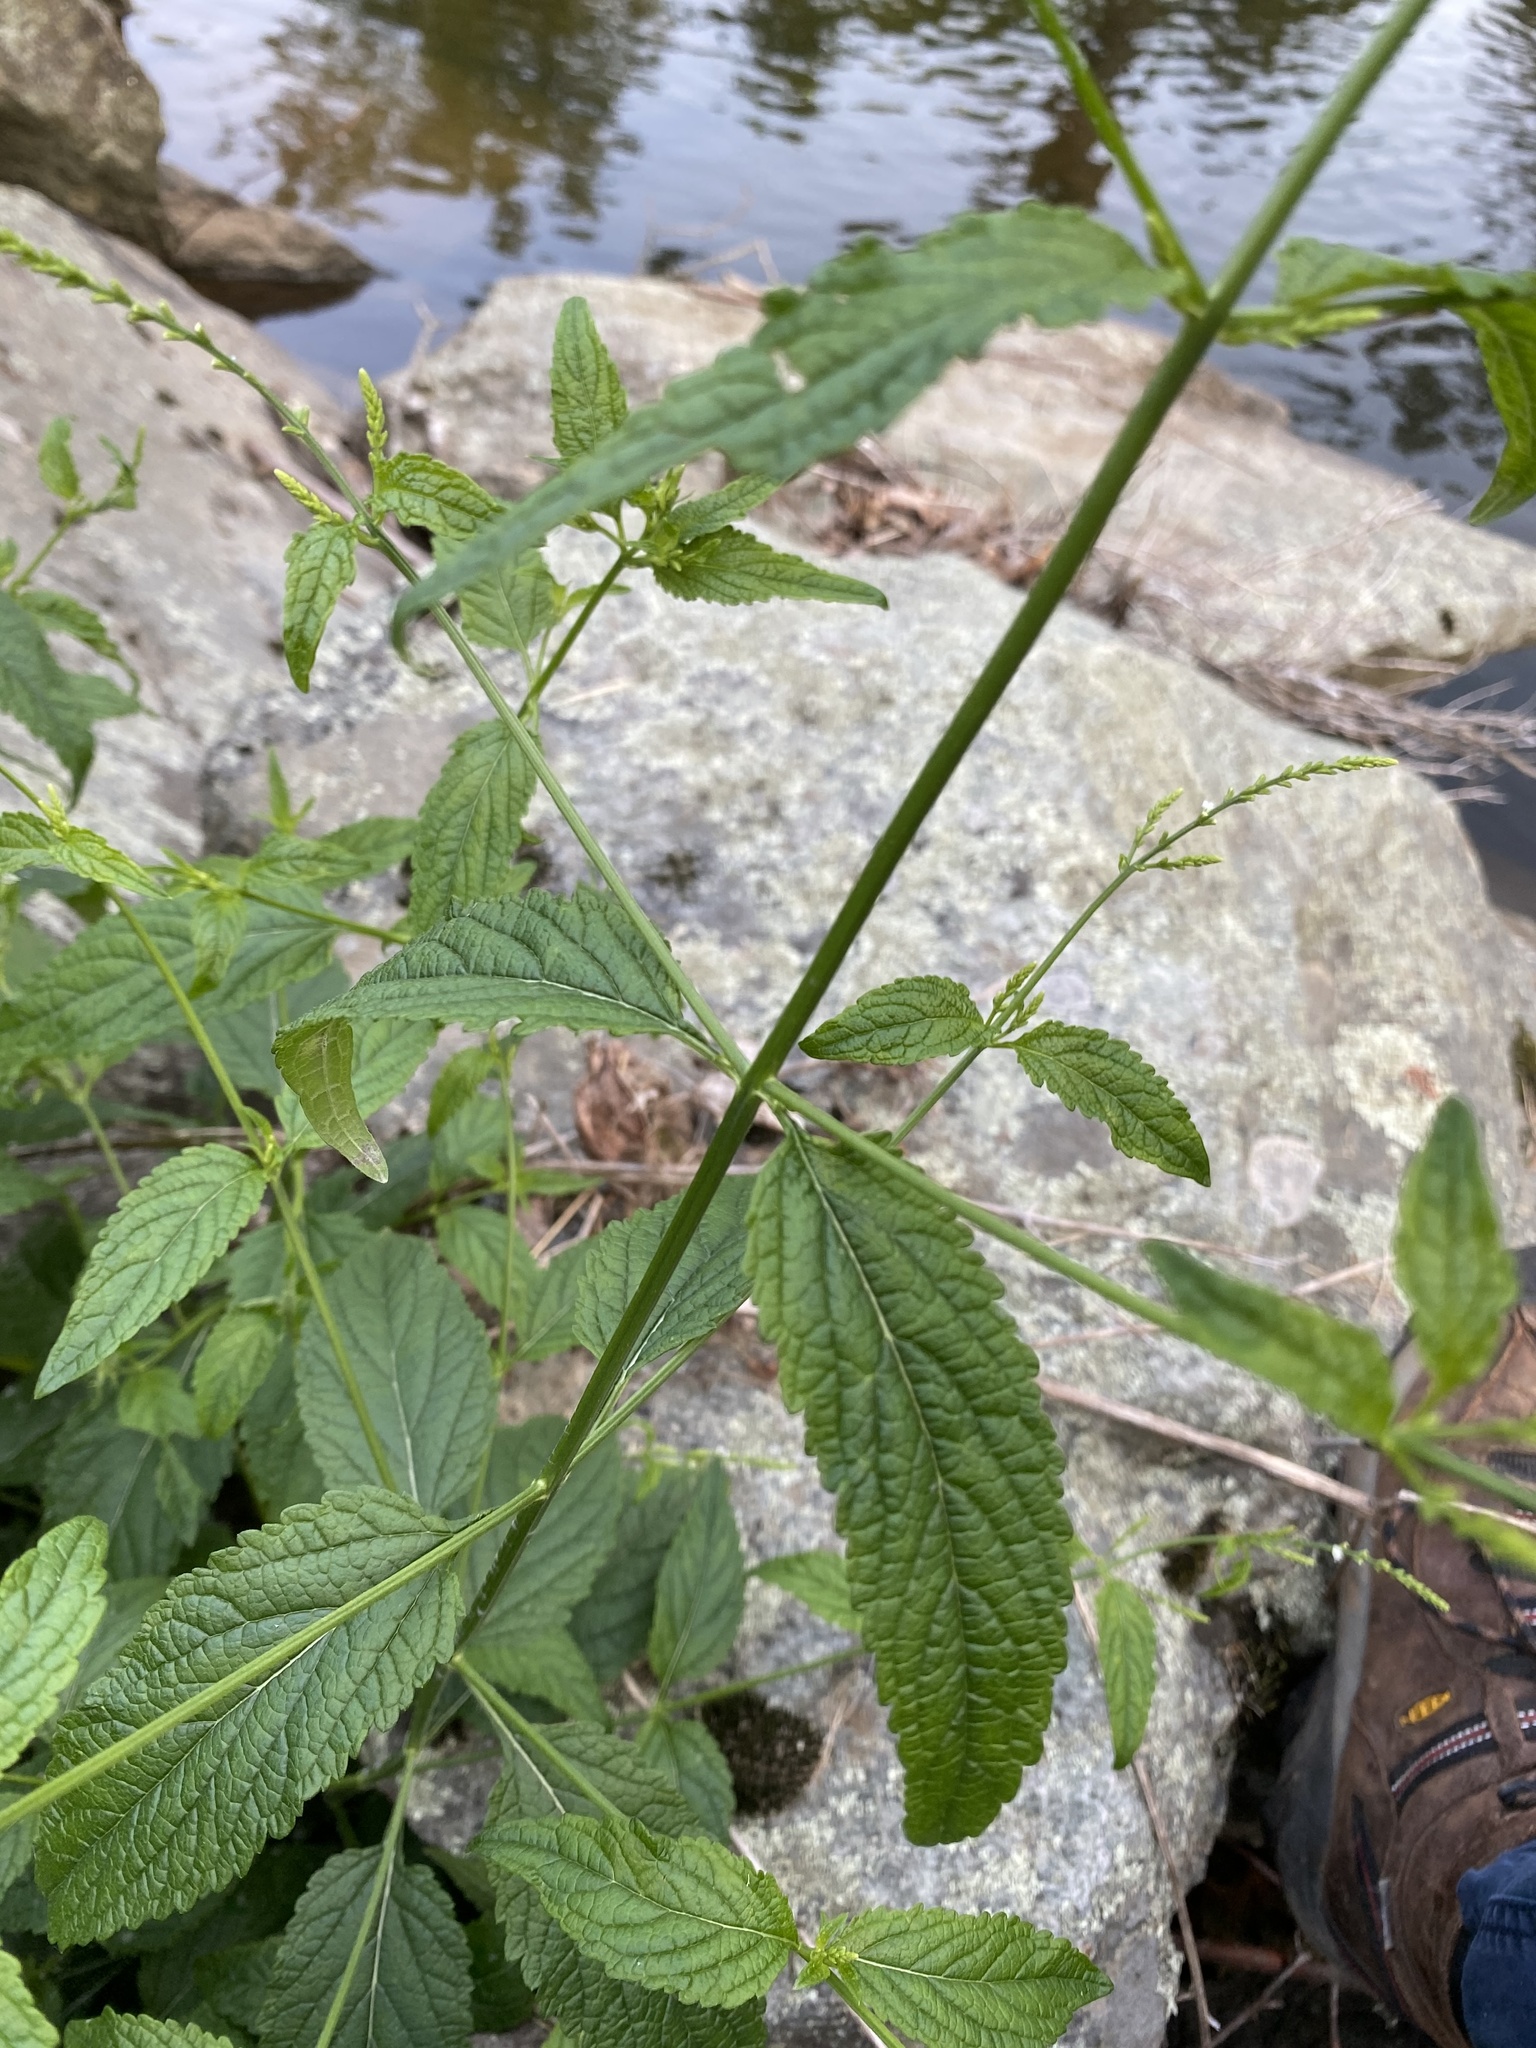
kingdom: Plantae
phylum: Tracheophyta
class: Magnoliopsida
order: Lamiales
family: Verbenaceae
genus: Verbena
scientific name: Verbena urticifolia
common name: Nettle-leaved vervain
